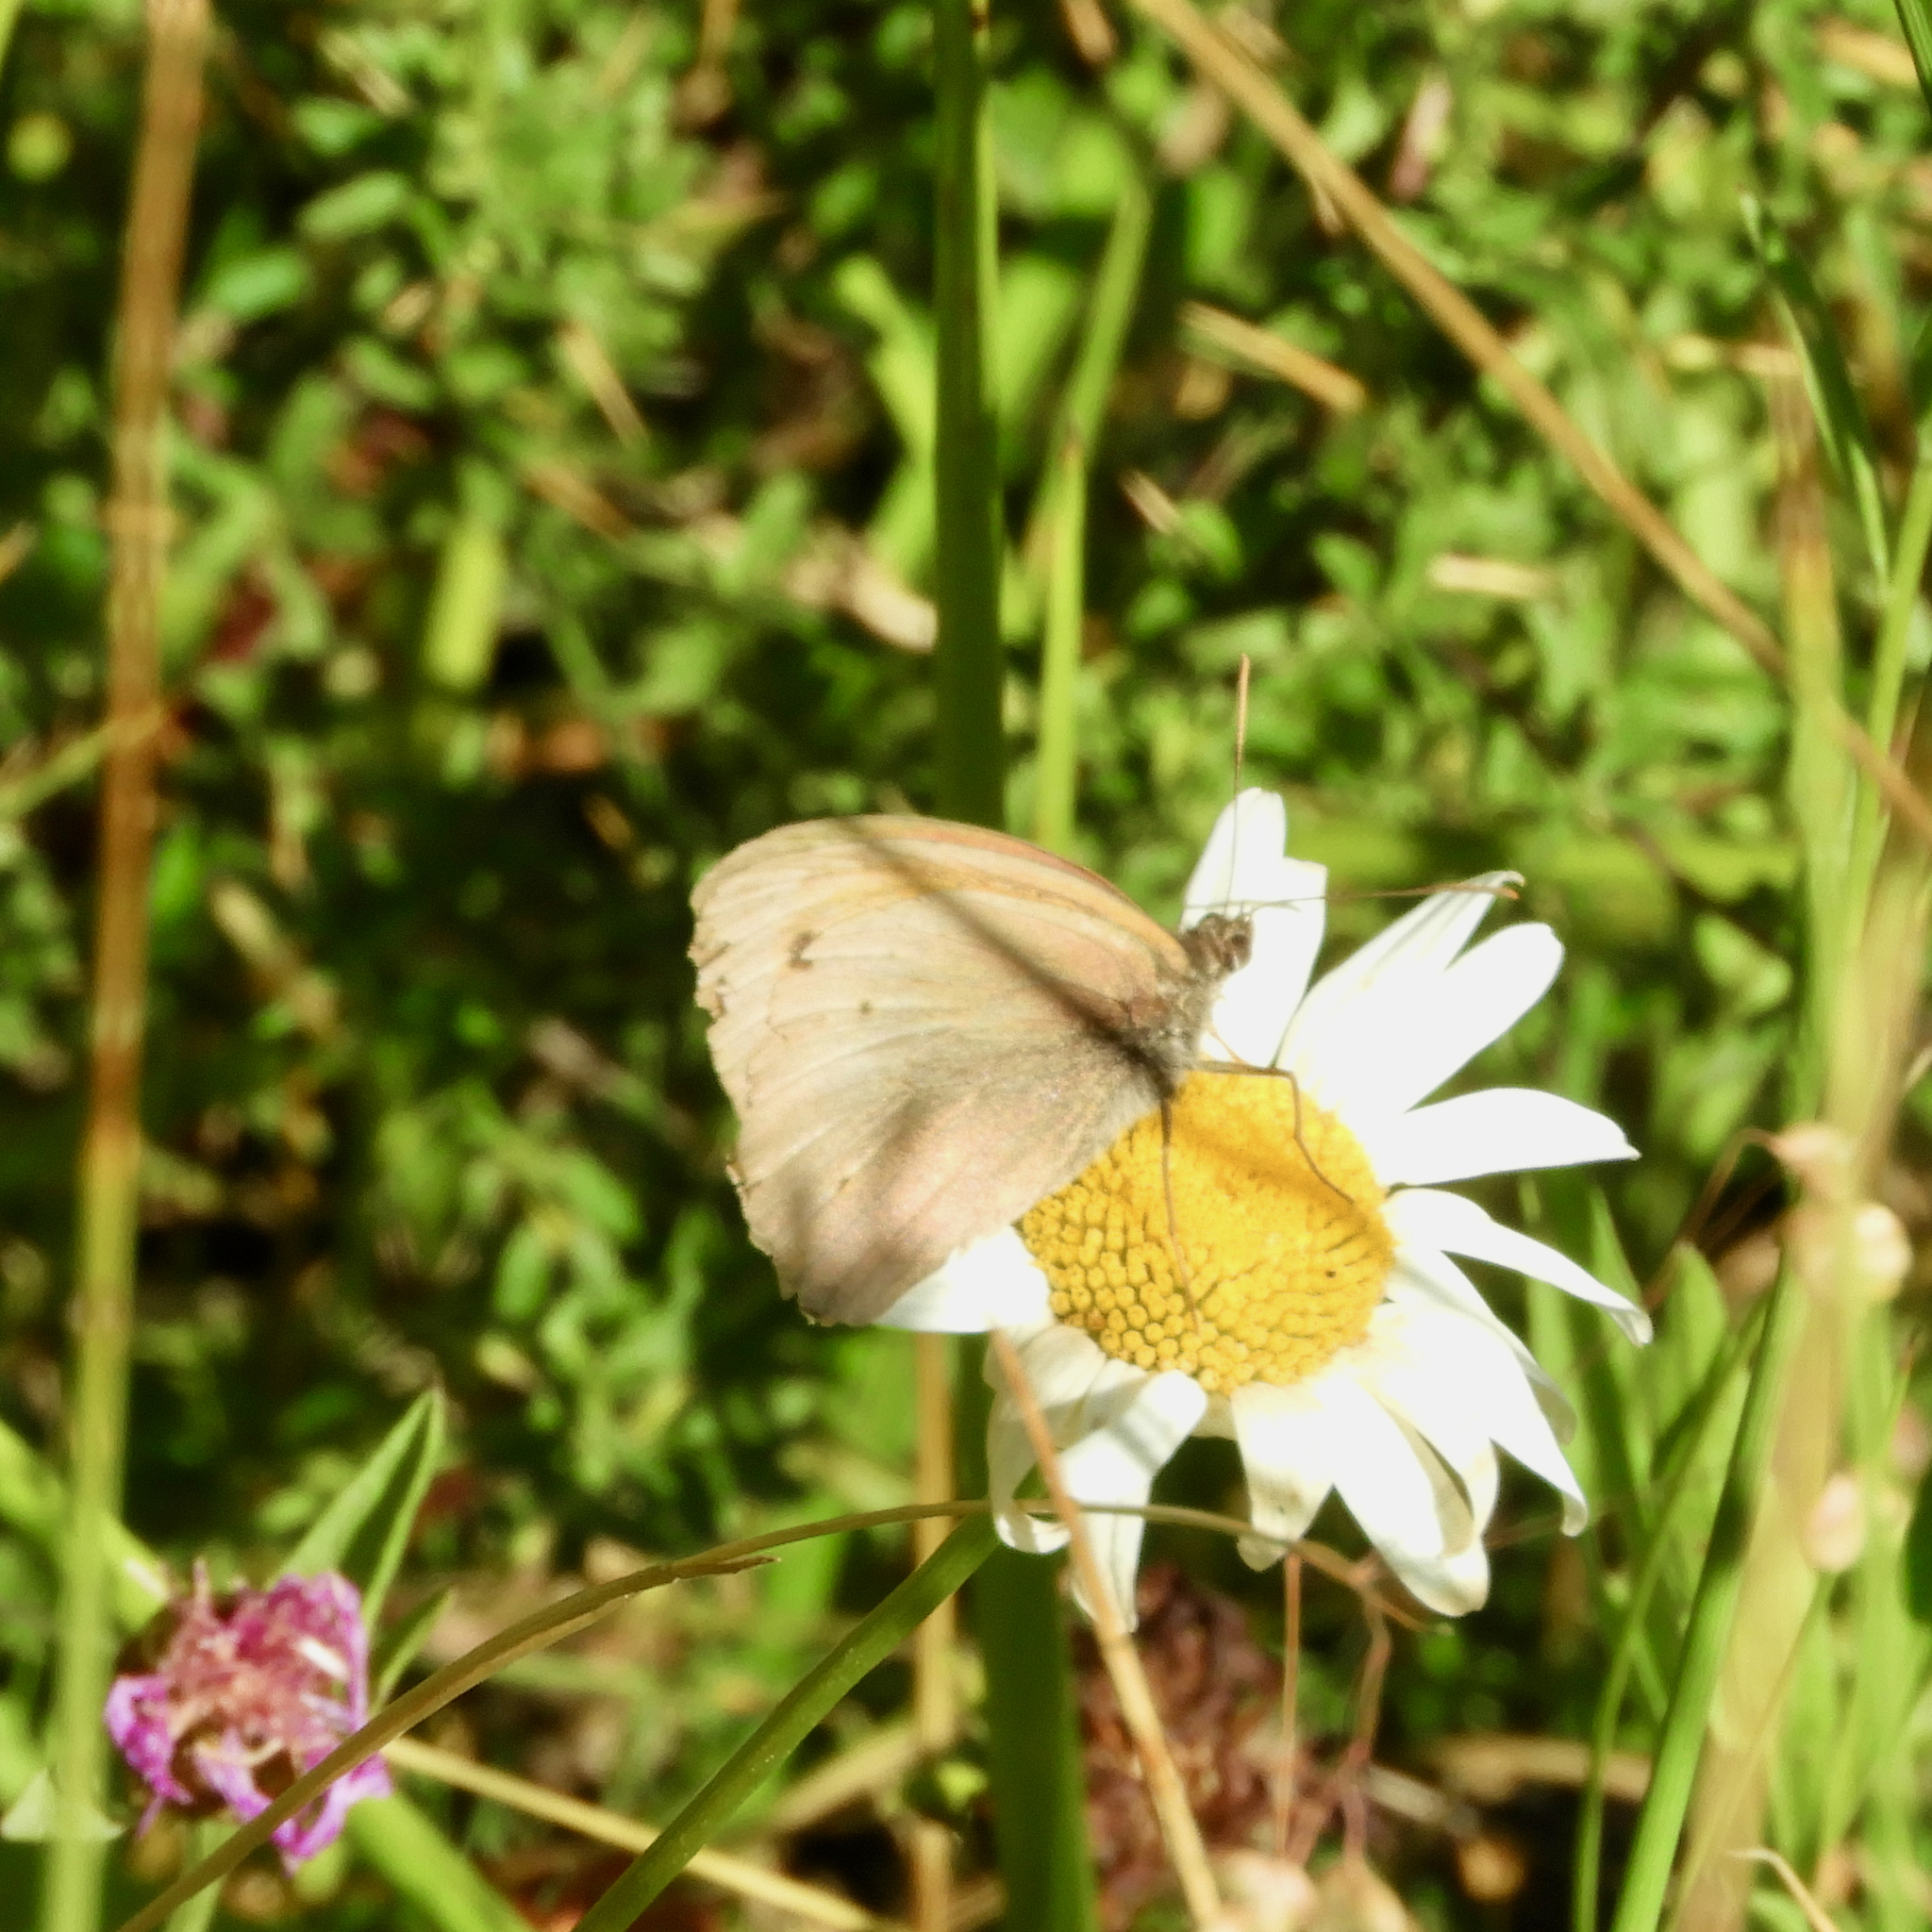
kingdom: Animalia
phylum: Arthropoda
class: Insecta
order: Lepidoptera
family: Nymphalidae
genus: Maniola
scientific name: Maniola jurtina
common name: Meadow brown
